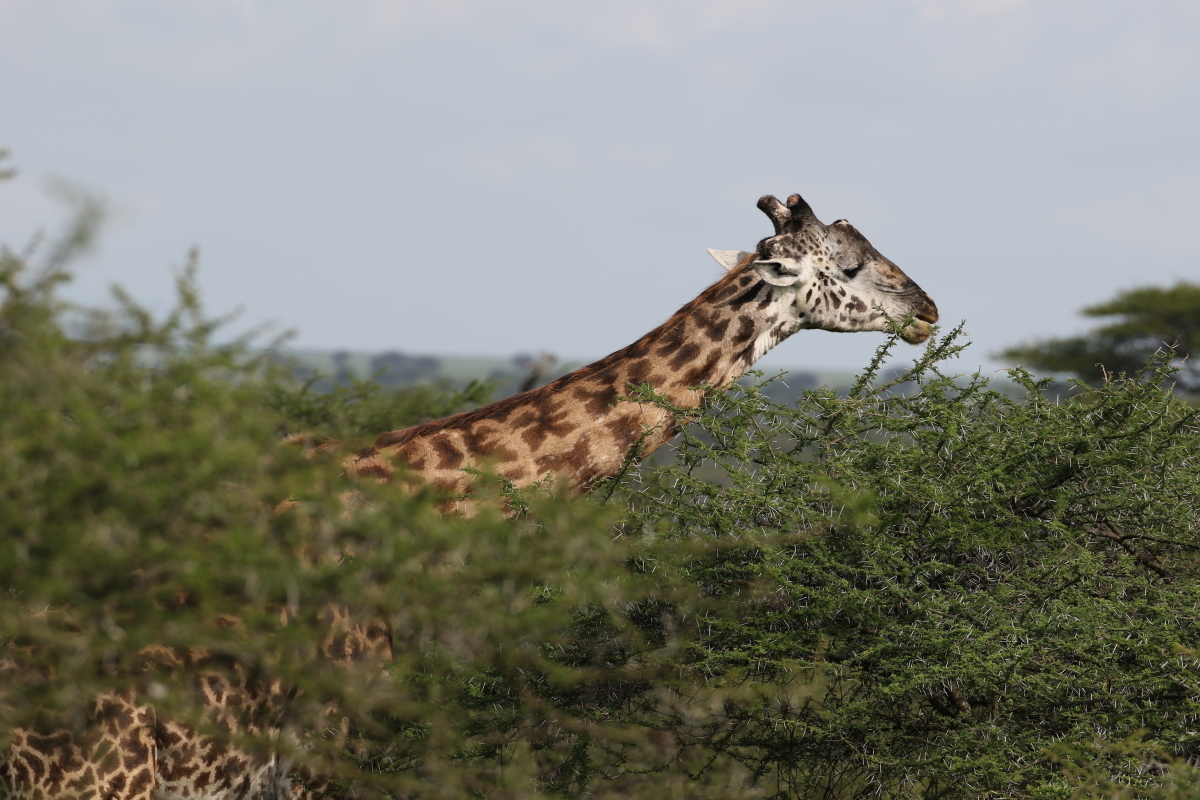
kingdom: Animalia
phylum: Chordata
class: Mammalia
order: Artiodactyla
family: Giraffidae
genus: Giraffa
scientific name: Giraffa tippelskirchi
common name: Masai giraffe
